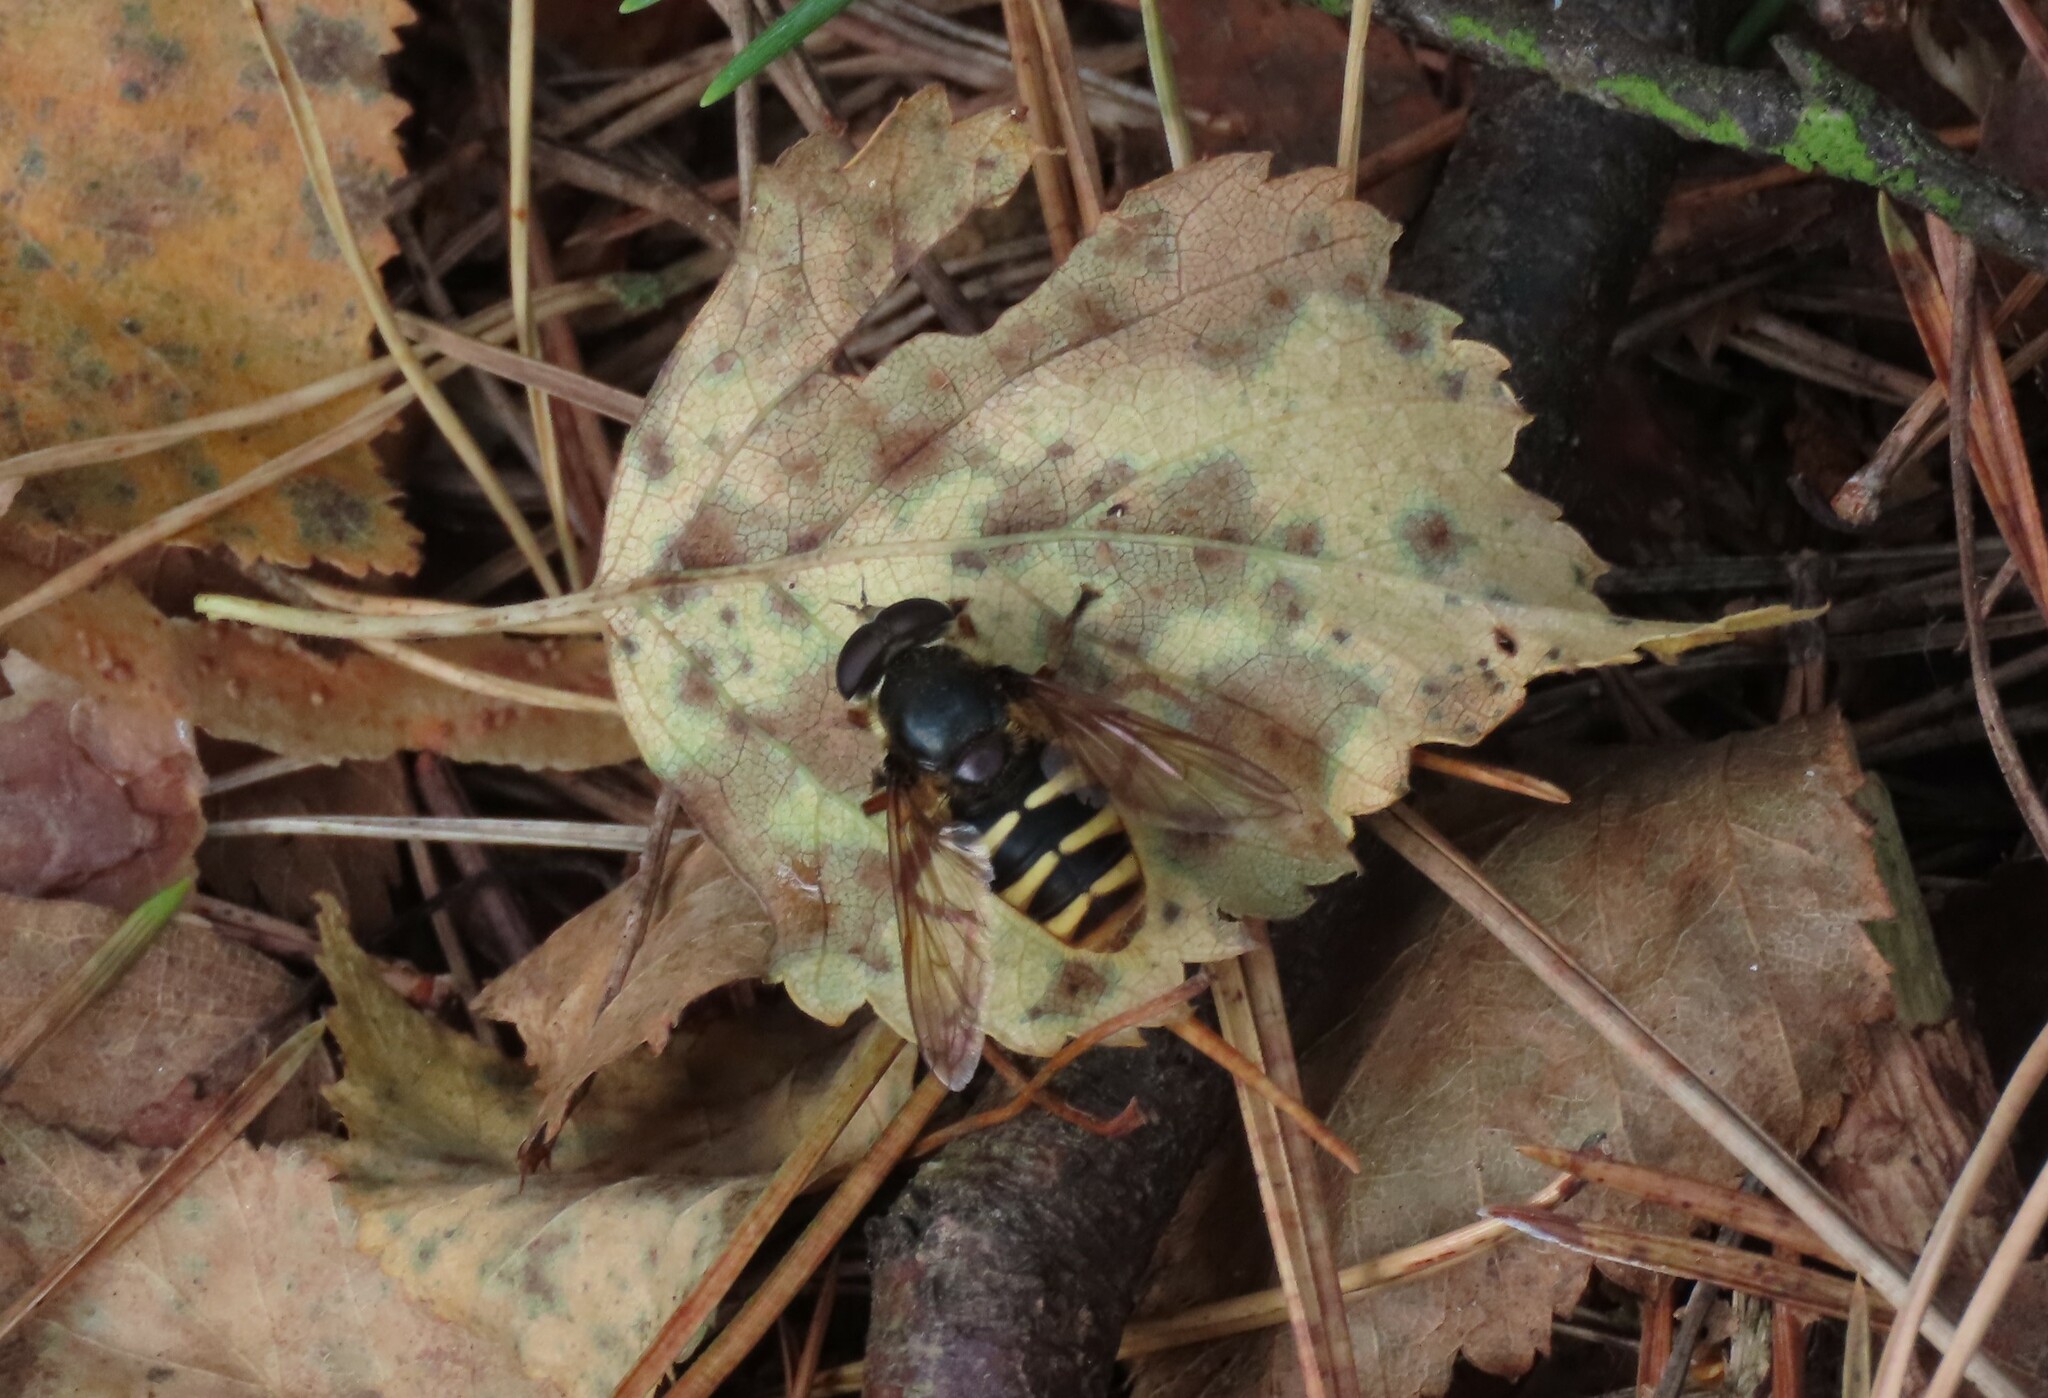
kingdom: Animalia
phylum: Arthropoda
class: Insecta
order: Diptera
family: Syrphidae
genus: Sericomyia
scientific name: Sericomyia silentis
